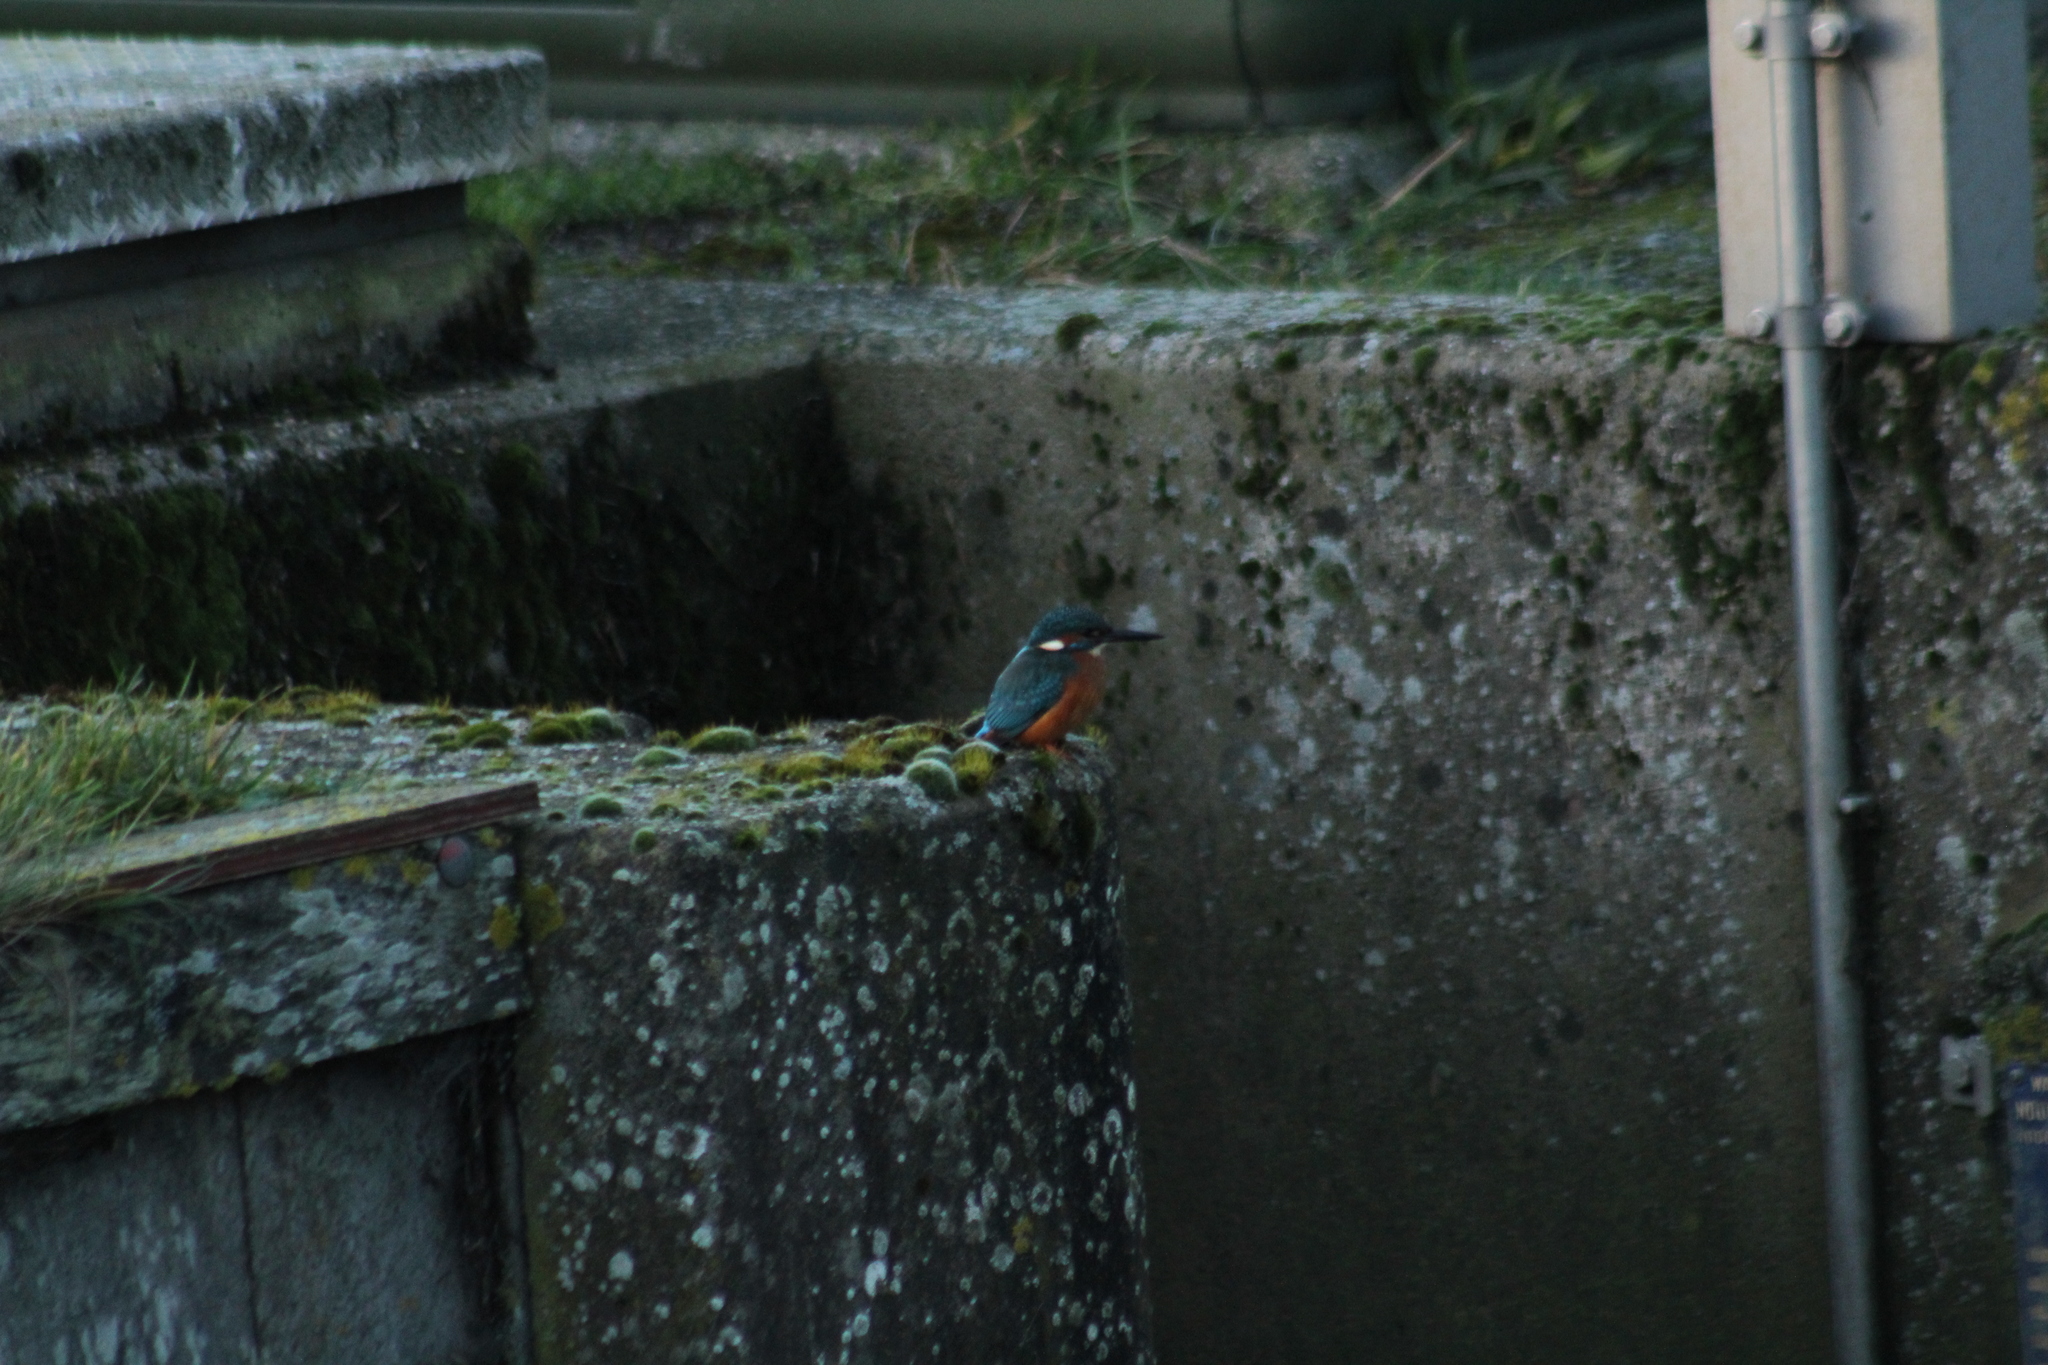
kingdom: Animalia
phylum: Chordata
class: Aves
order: Coraciiformes
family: Alcedinidae
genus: Alcedo
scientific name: Alcedo atthis
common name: Common kingfisher
